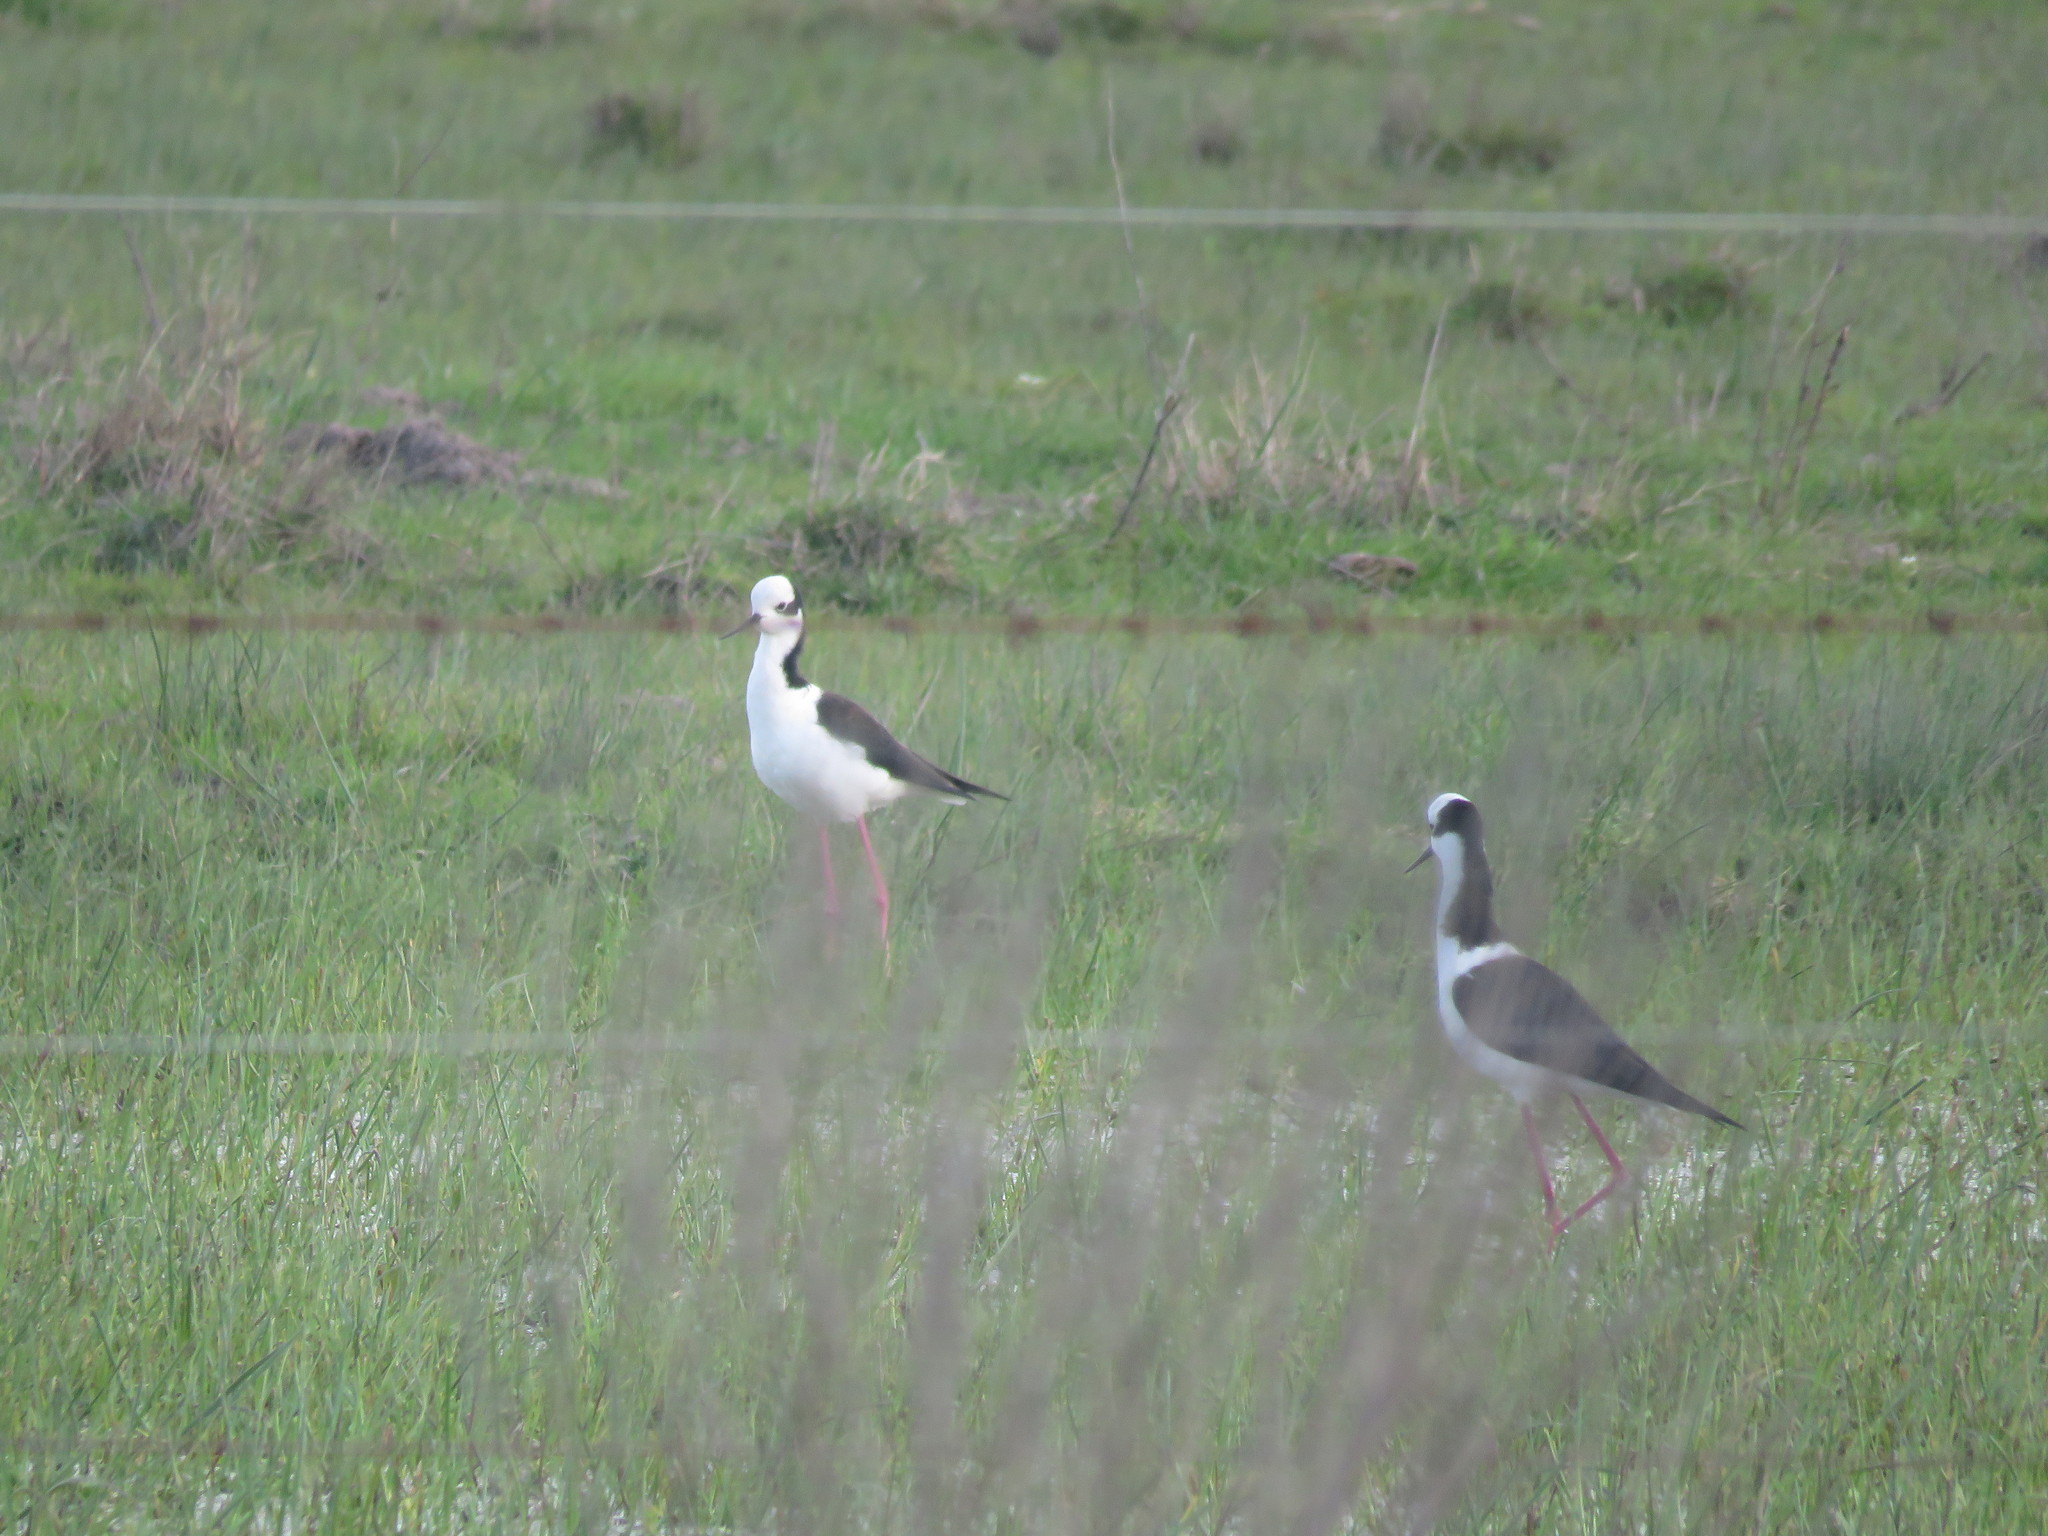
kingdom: Animalia
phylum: Chordata
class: Aves
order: Charadriiformes
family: Recurvirostridae
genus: Himantopus
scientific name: Himantopus mexicanus
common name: Black-necked stilt
